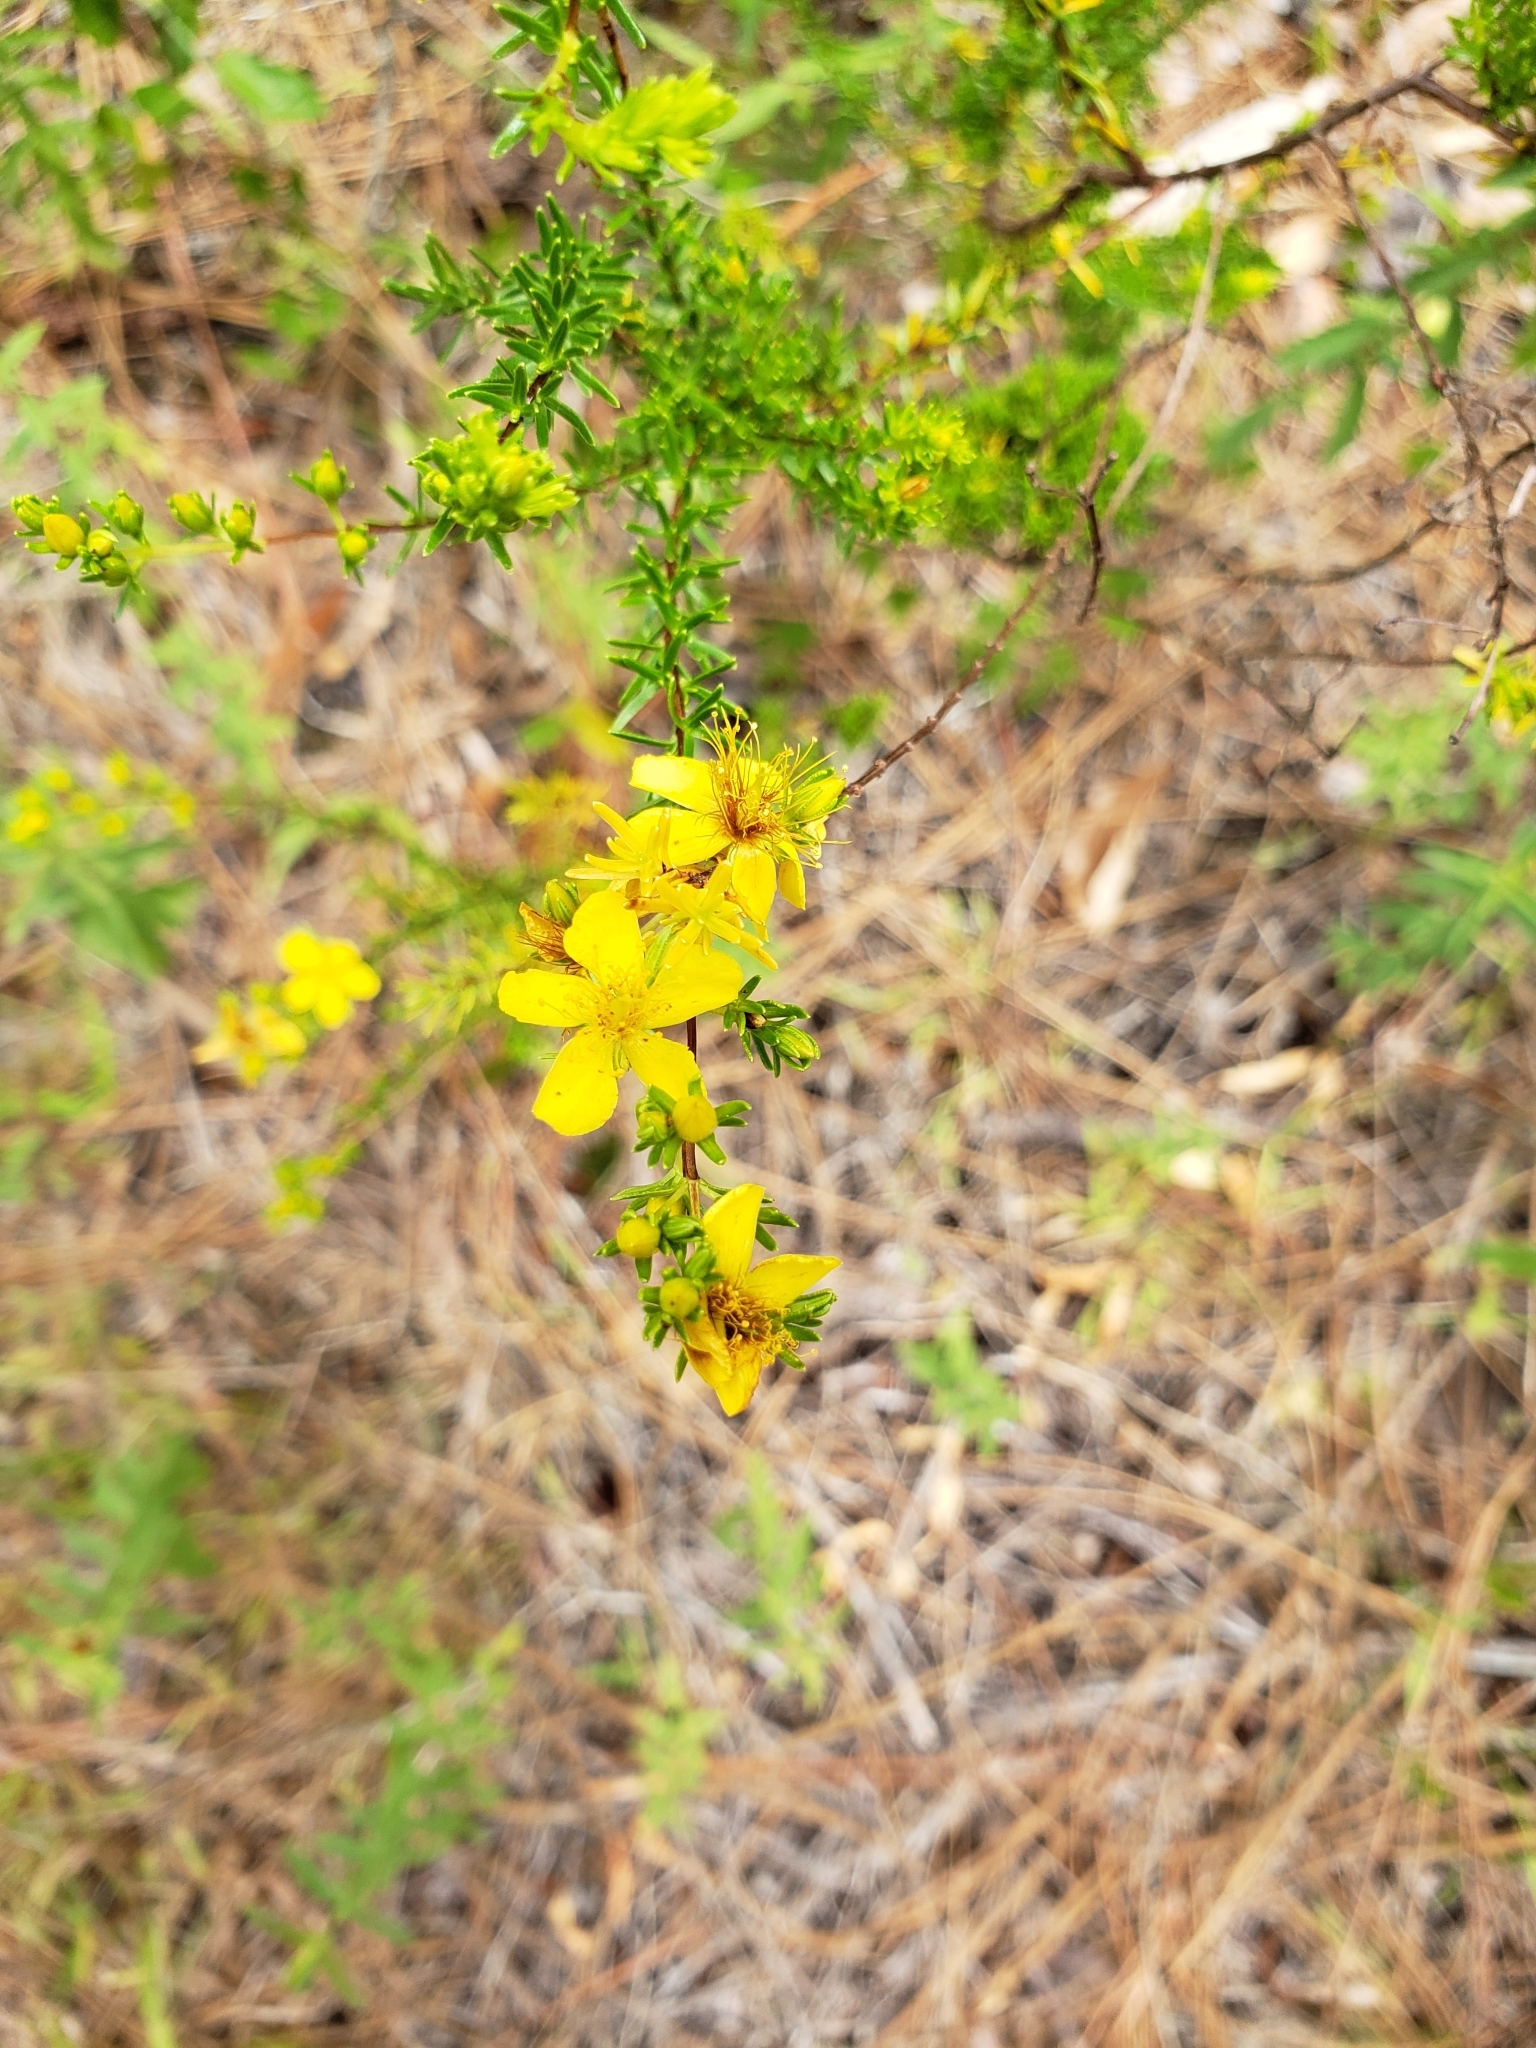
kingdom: Plantae
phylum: Tracheophyta
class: Magnoliopsida
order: Malpighiales
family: Hypericaceae
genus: Hypericum
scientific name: Hypericum tenuifolium
